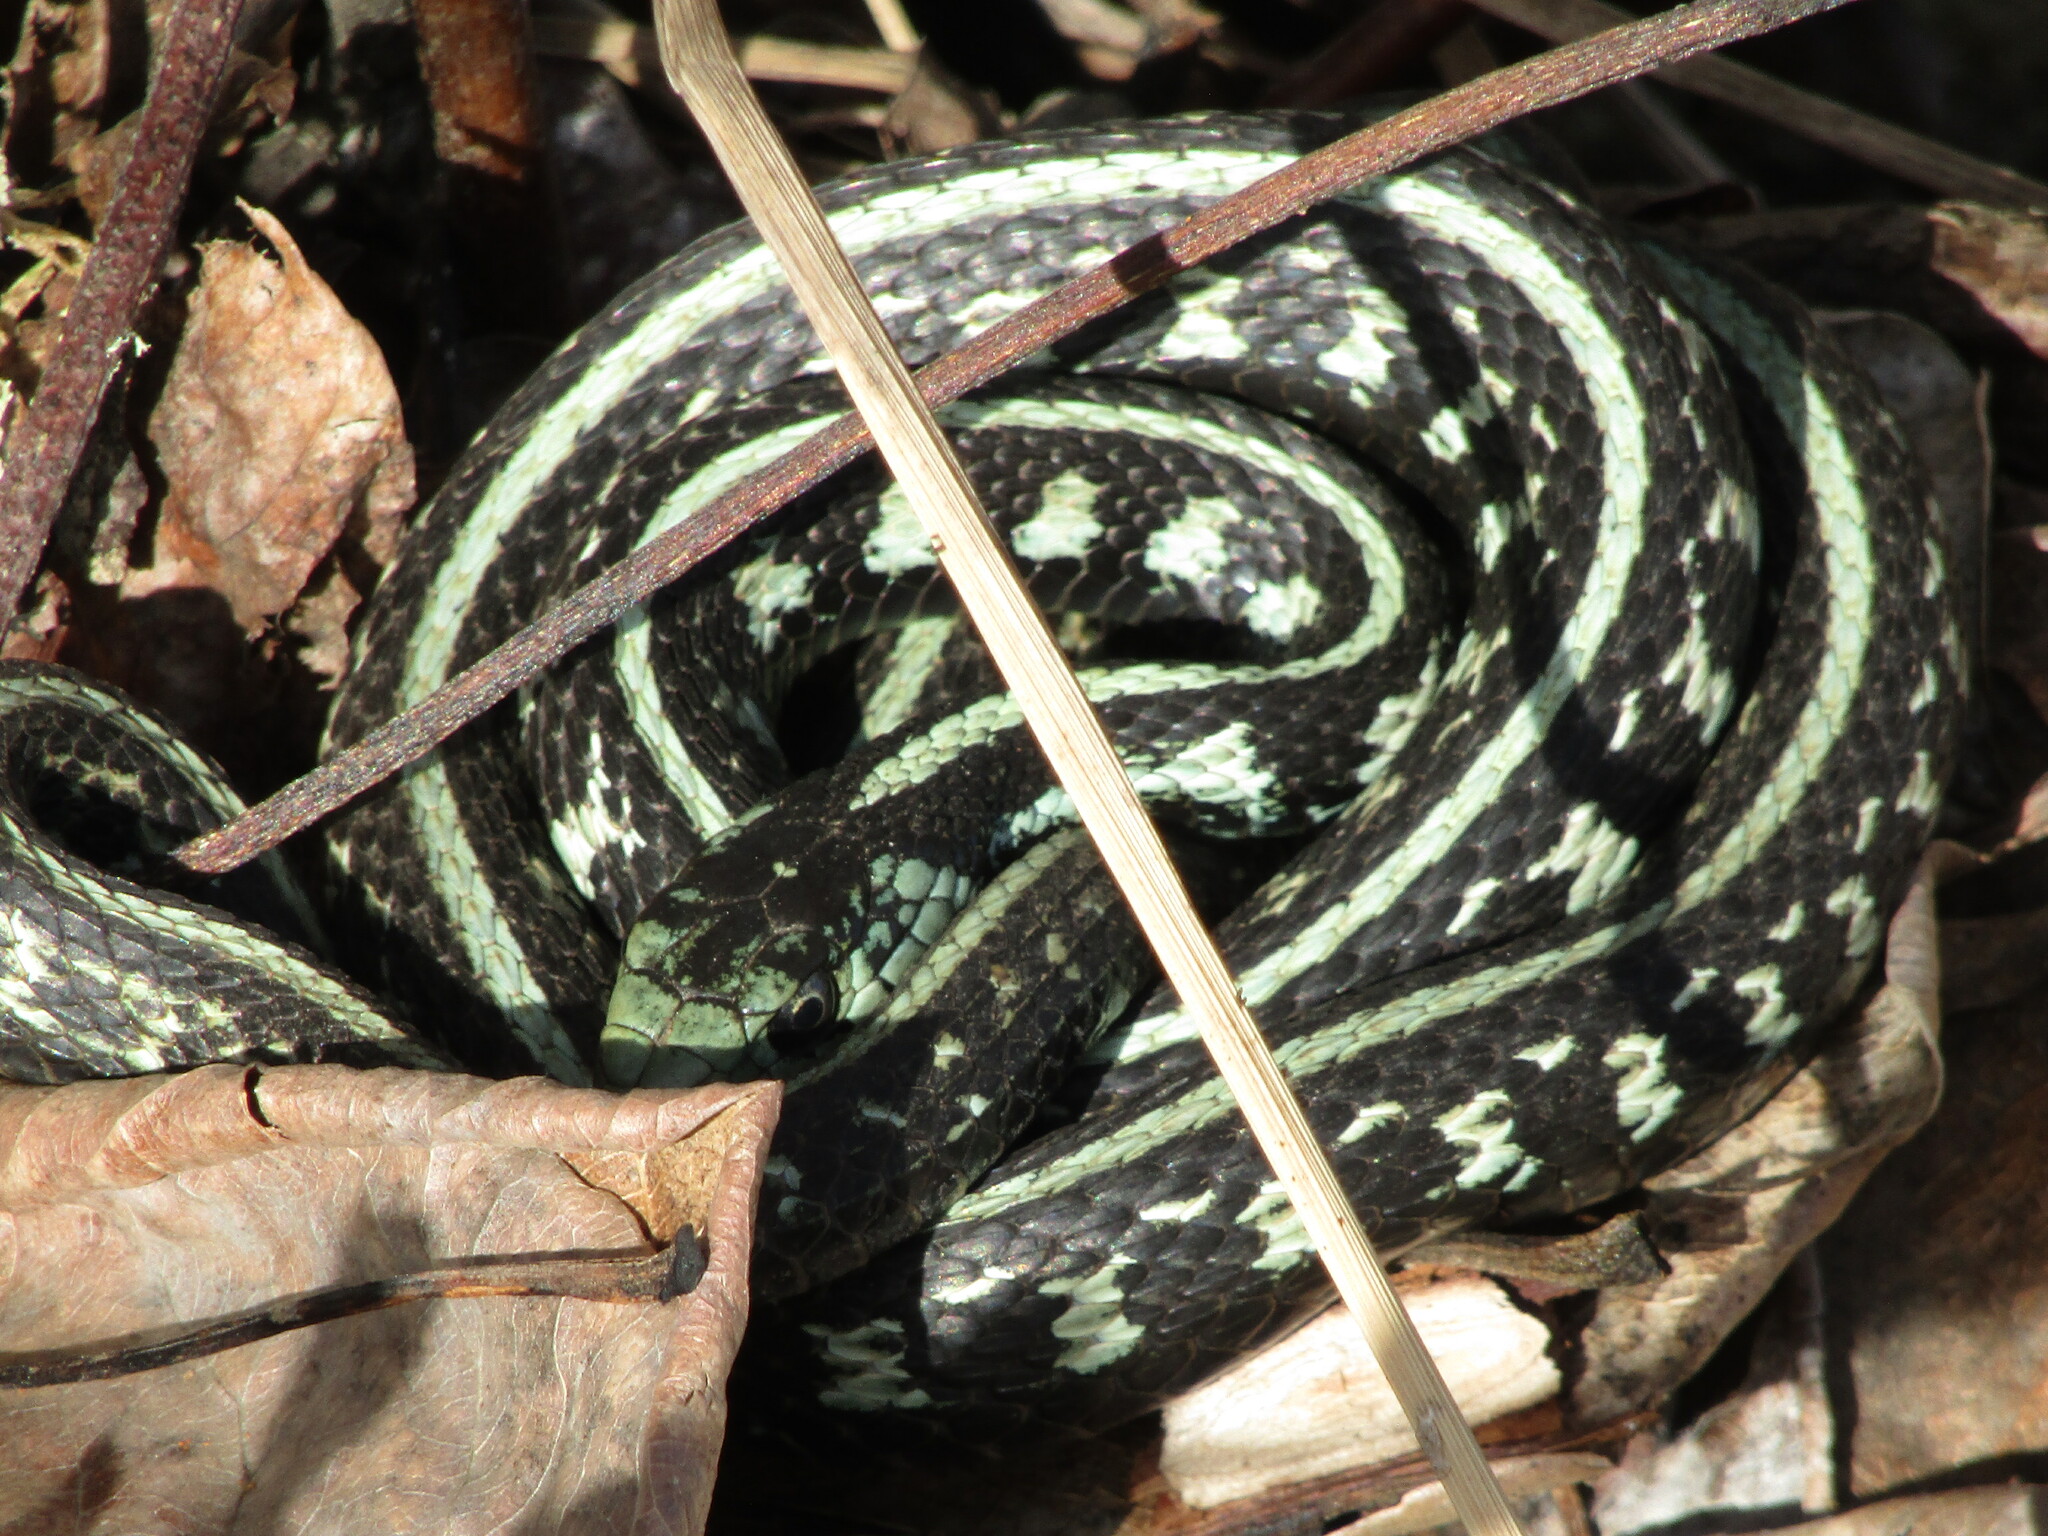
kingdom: Animalia
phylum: Chordata
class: Squamata
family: Colubridae
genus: Thamnophis
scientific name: Thamnophis sirtalis
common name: Common garter snake
